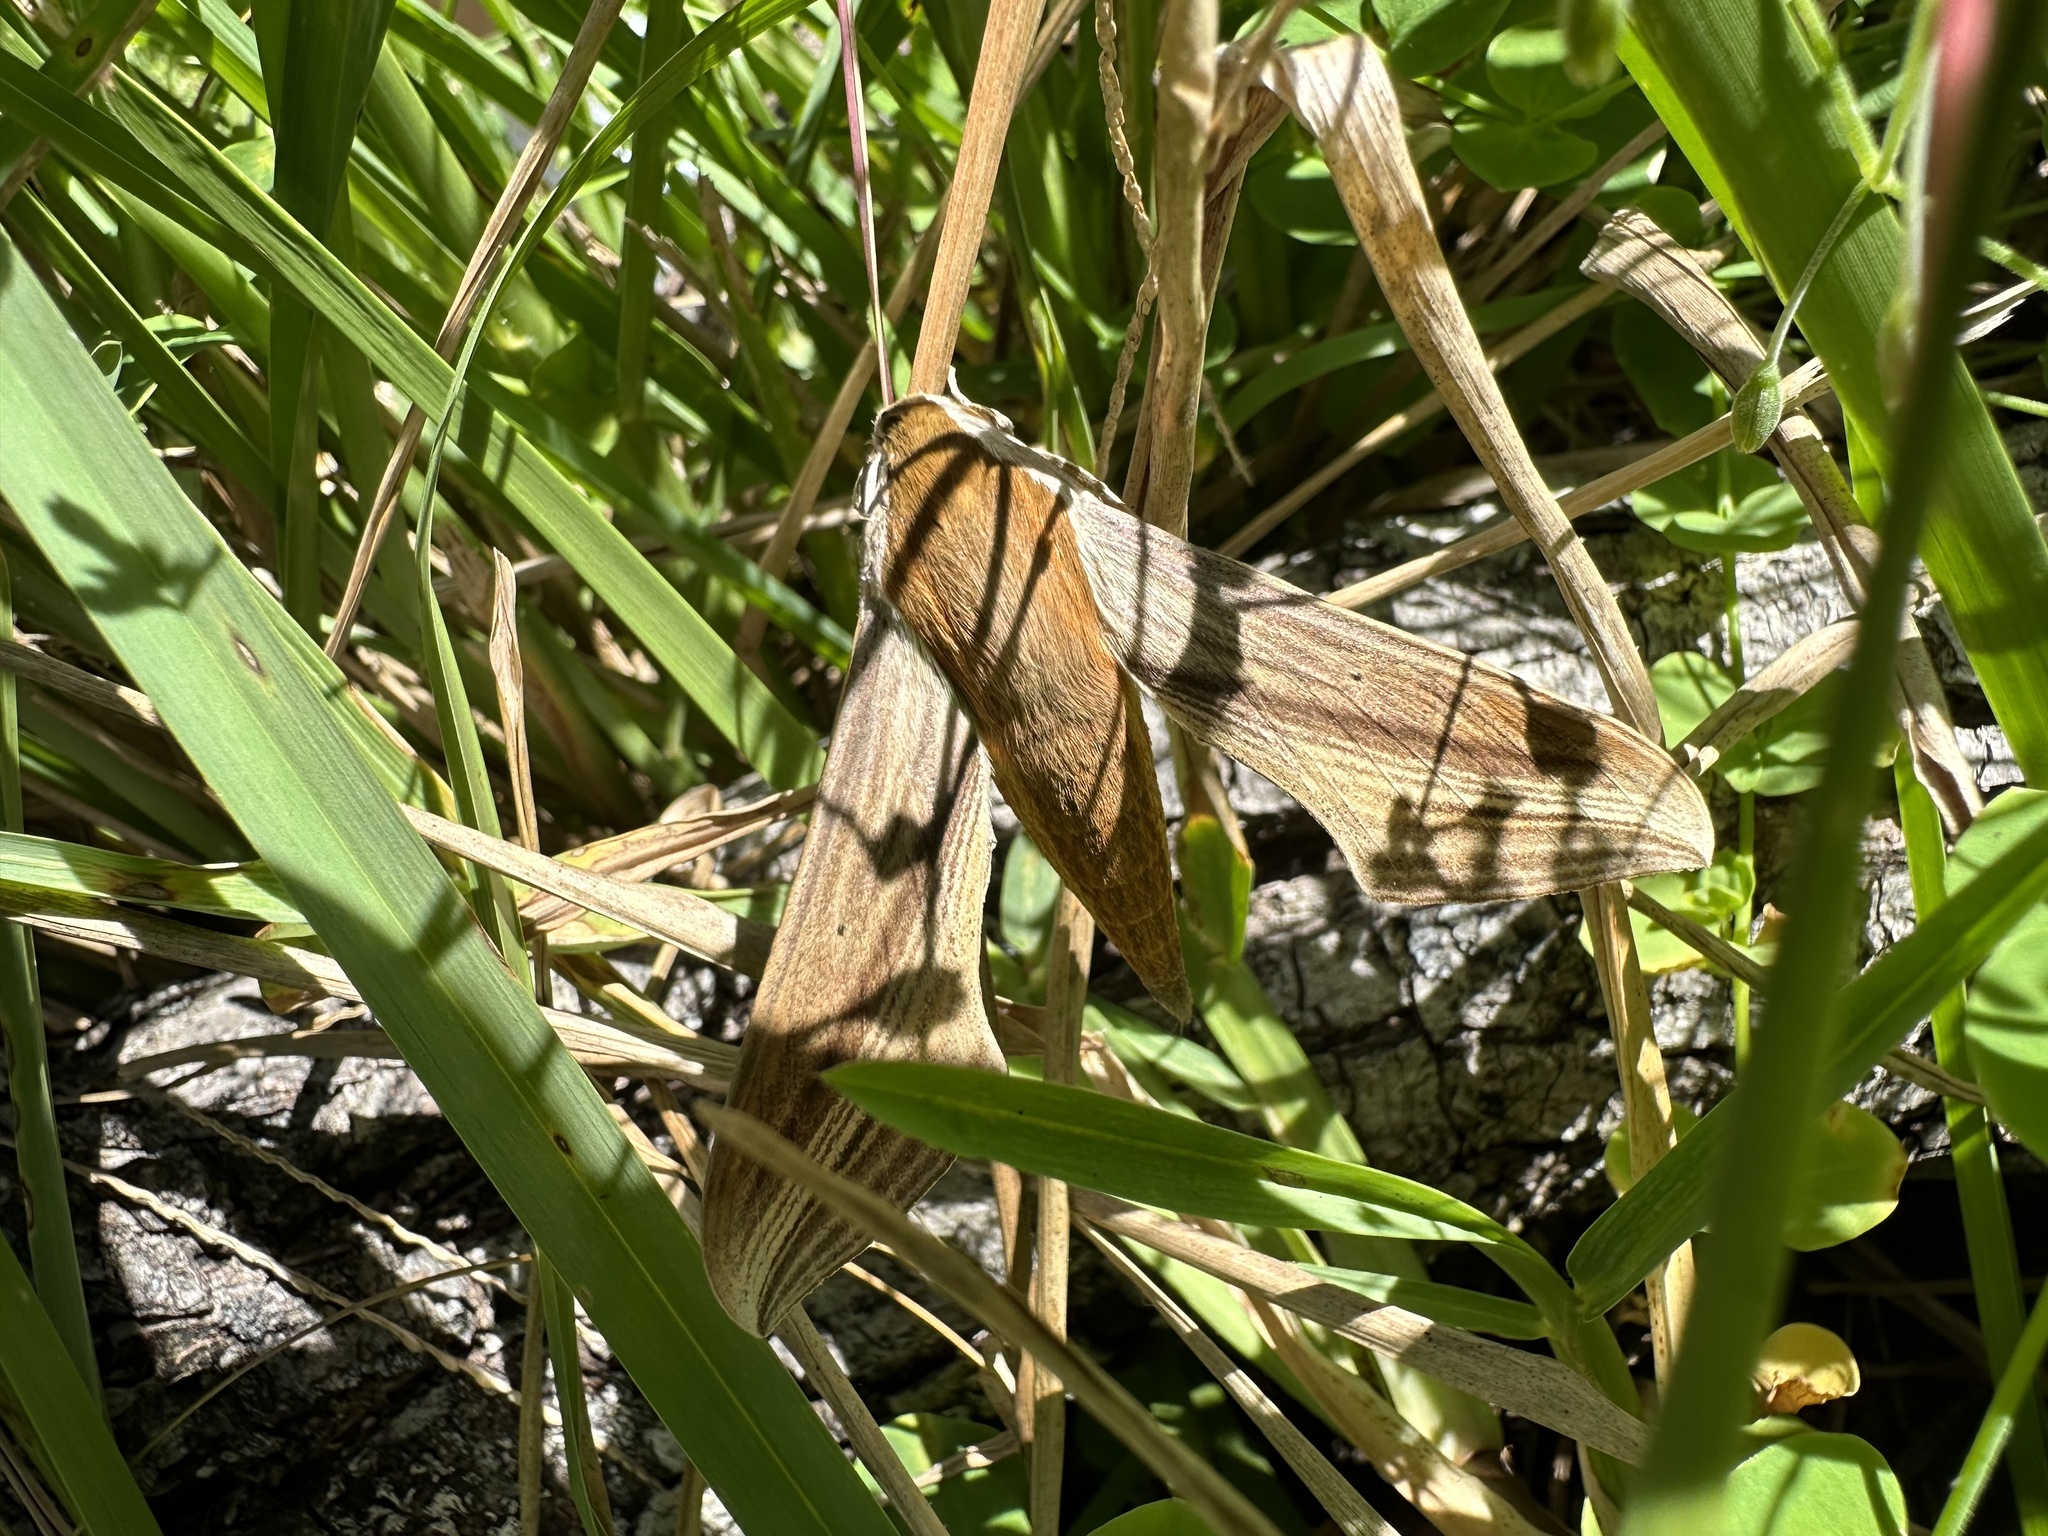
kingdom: Animalia
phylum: Arthropoda
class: Insecta
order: Lepidoptera
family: Sphingidae
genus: Xylophanes
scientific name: Xylophanes tersa
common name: Tersa sphinx
